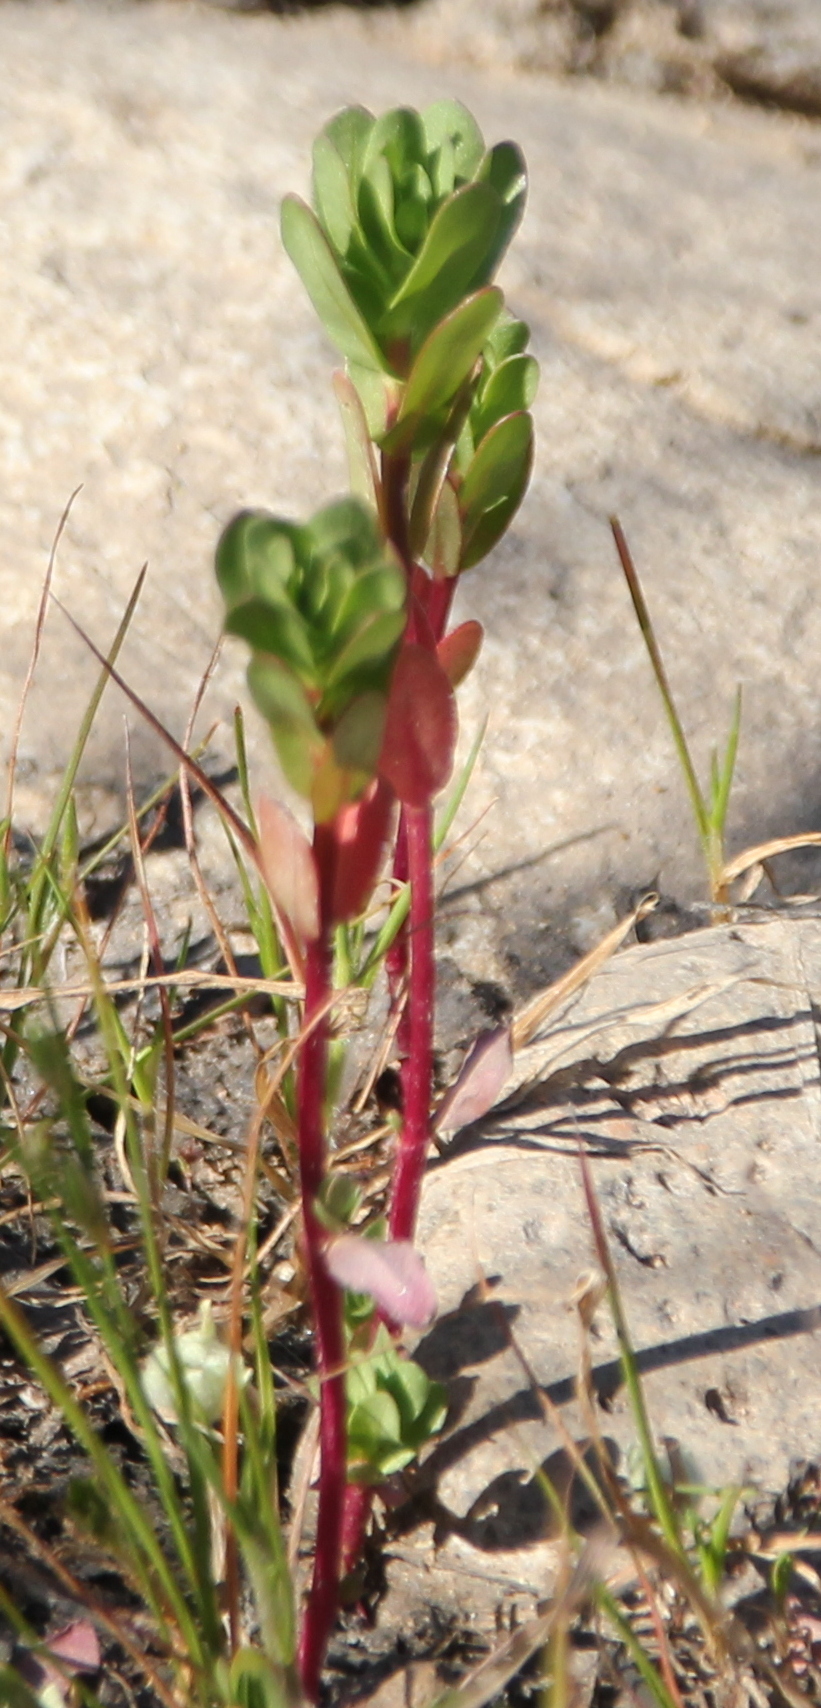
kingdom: Plantae
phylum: Tracheophyta
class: Magnoliopsida
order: Myrtales
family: Lythraceae
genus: Lythrum
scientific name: Lythrum hyssopifolia
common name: Grass-poly
